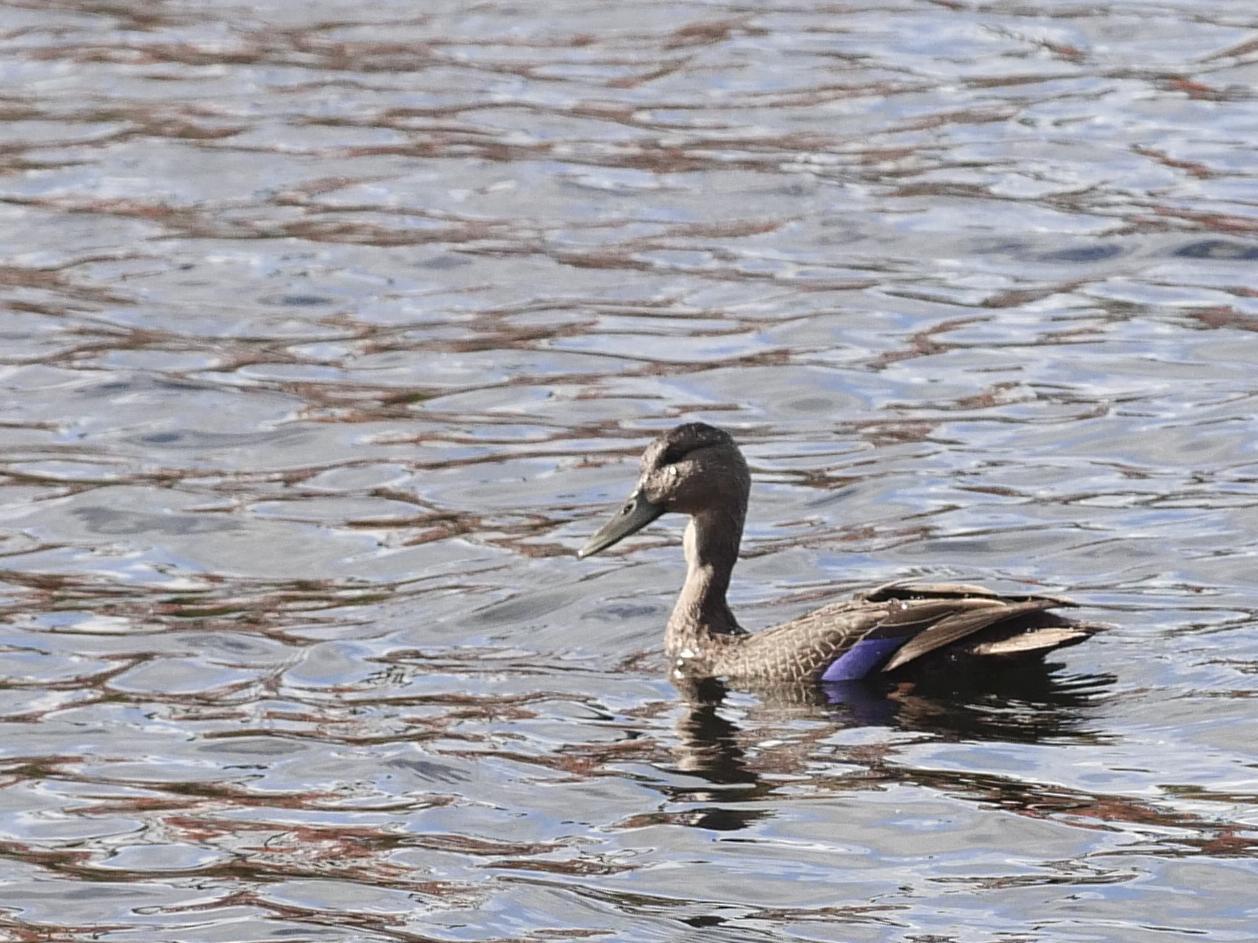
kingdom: Animalia
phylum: Chordata
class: Aves
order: Anseriformes
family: Anatidae
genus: Anas
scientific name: Anas rubripes
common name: American black duck
